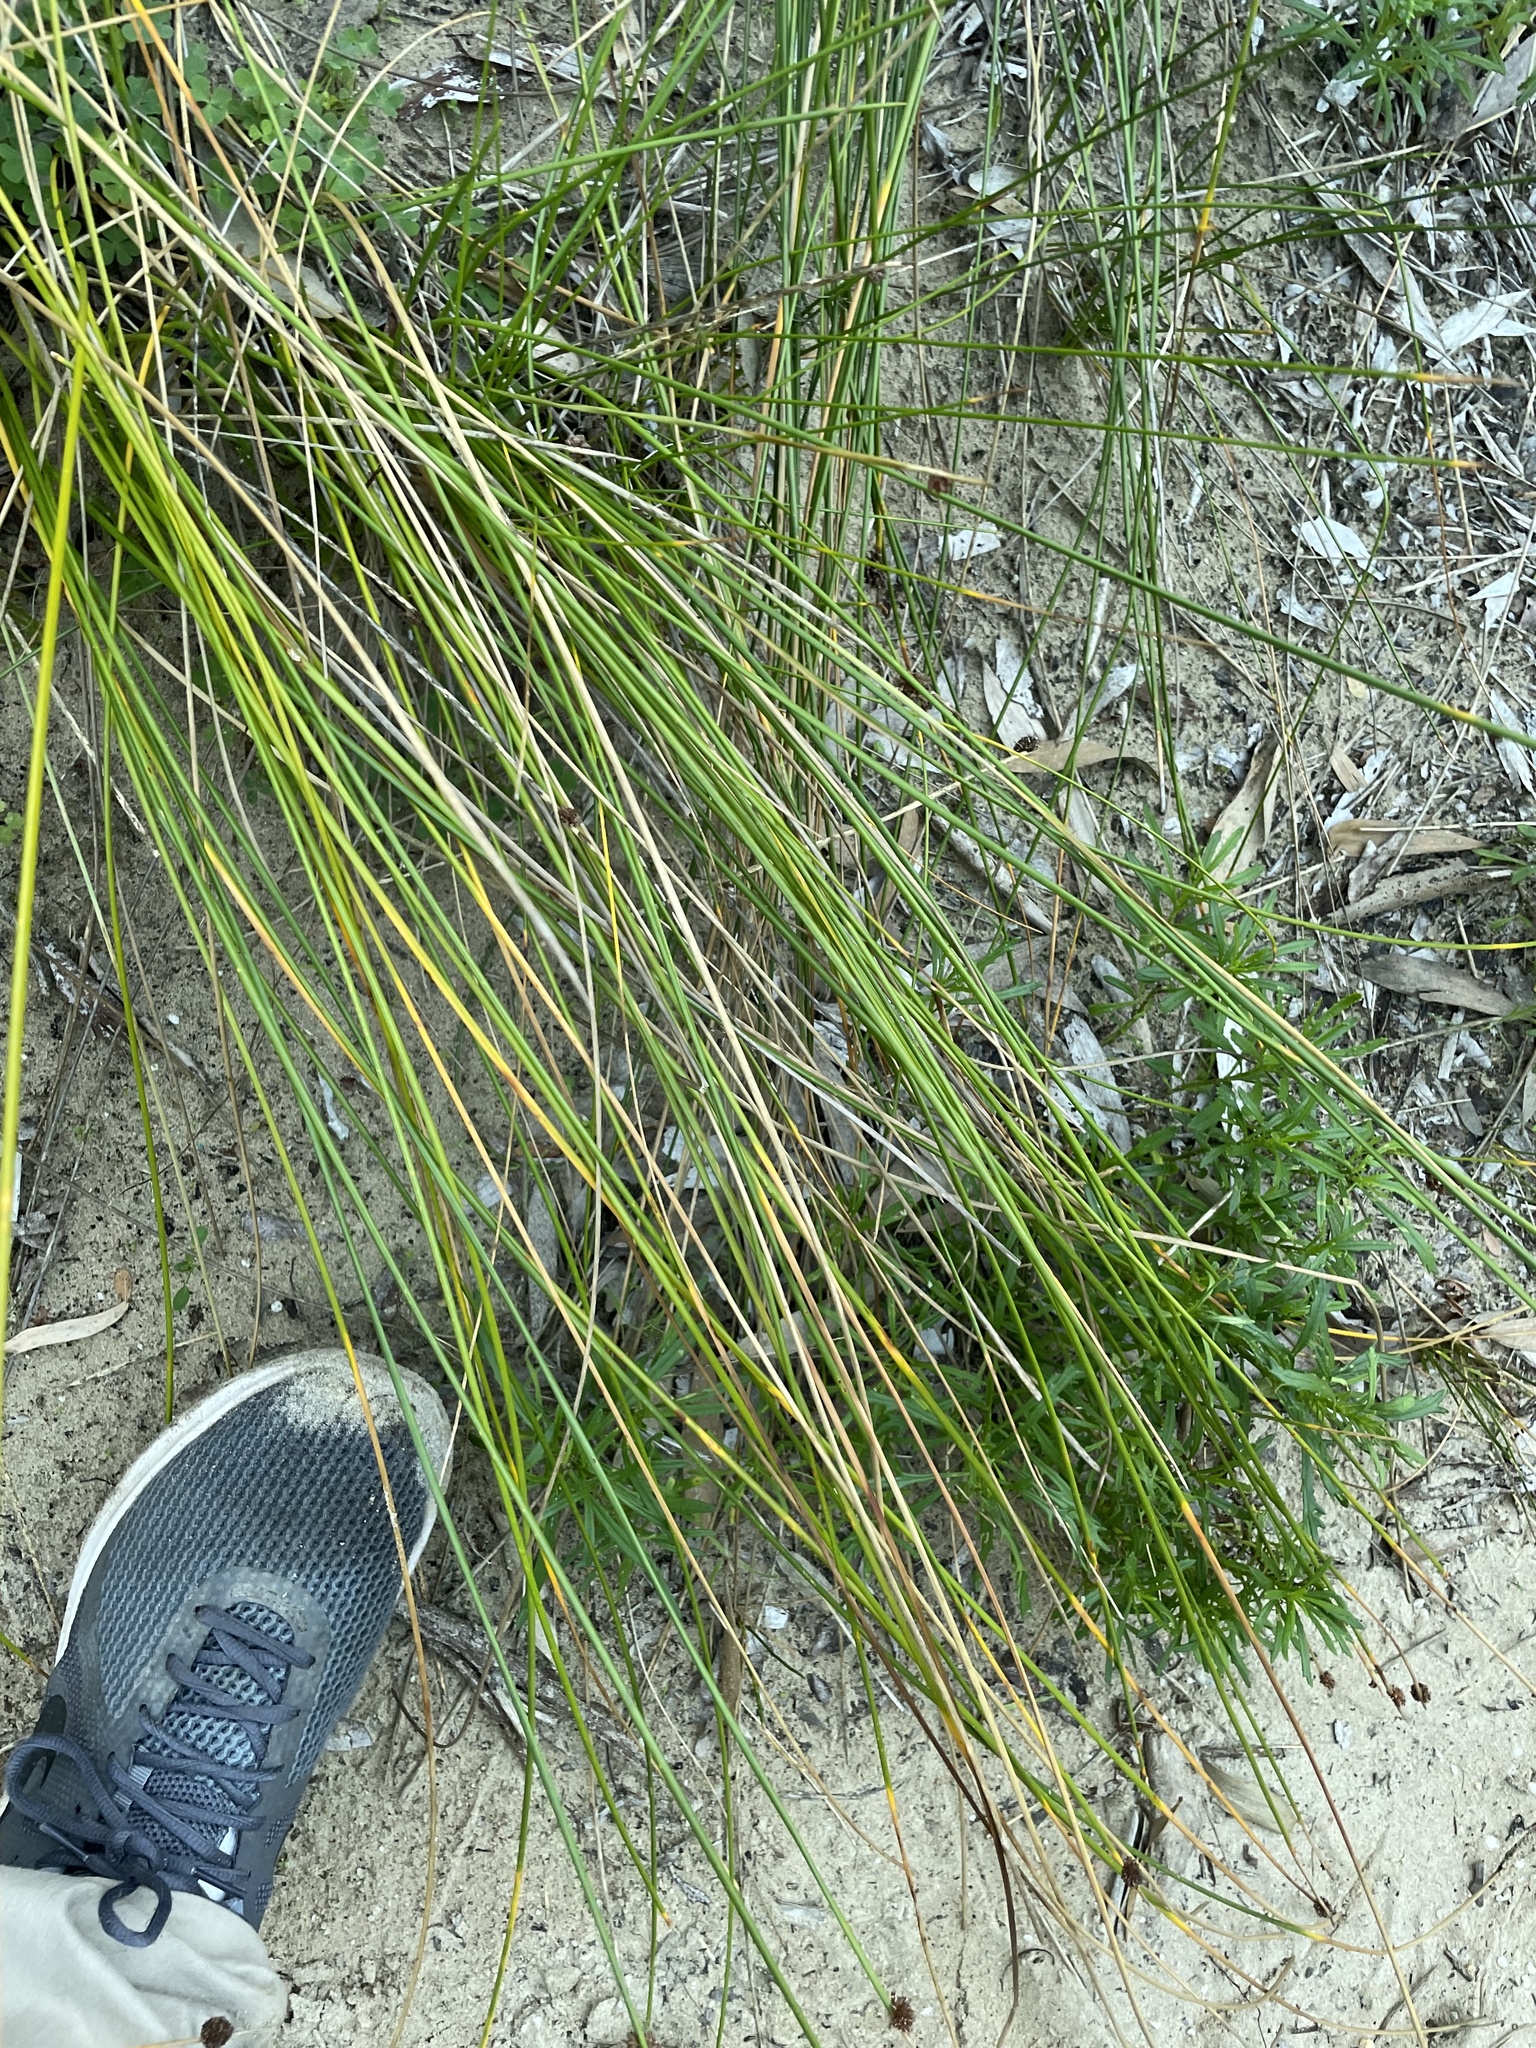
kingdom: Plantae
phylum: Tracheophyta
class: Liliopsida
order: Poales
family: Cyperaceae
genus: Ficinia
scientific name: Ficinia nodosa
